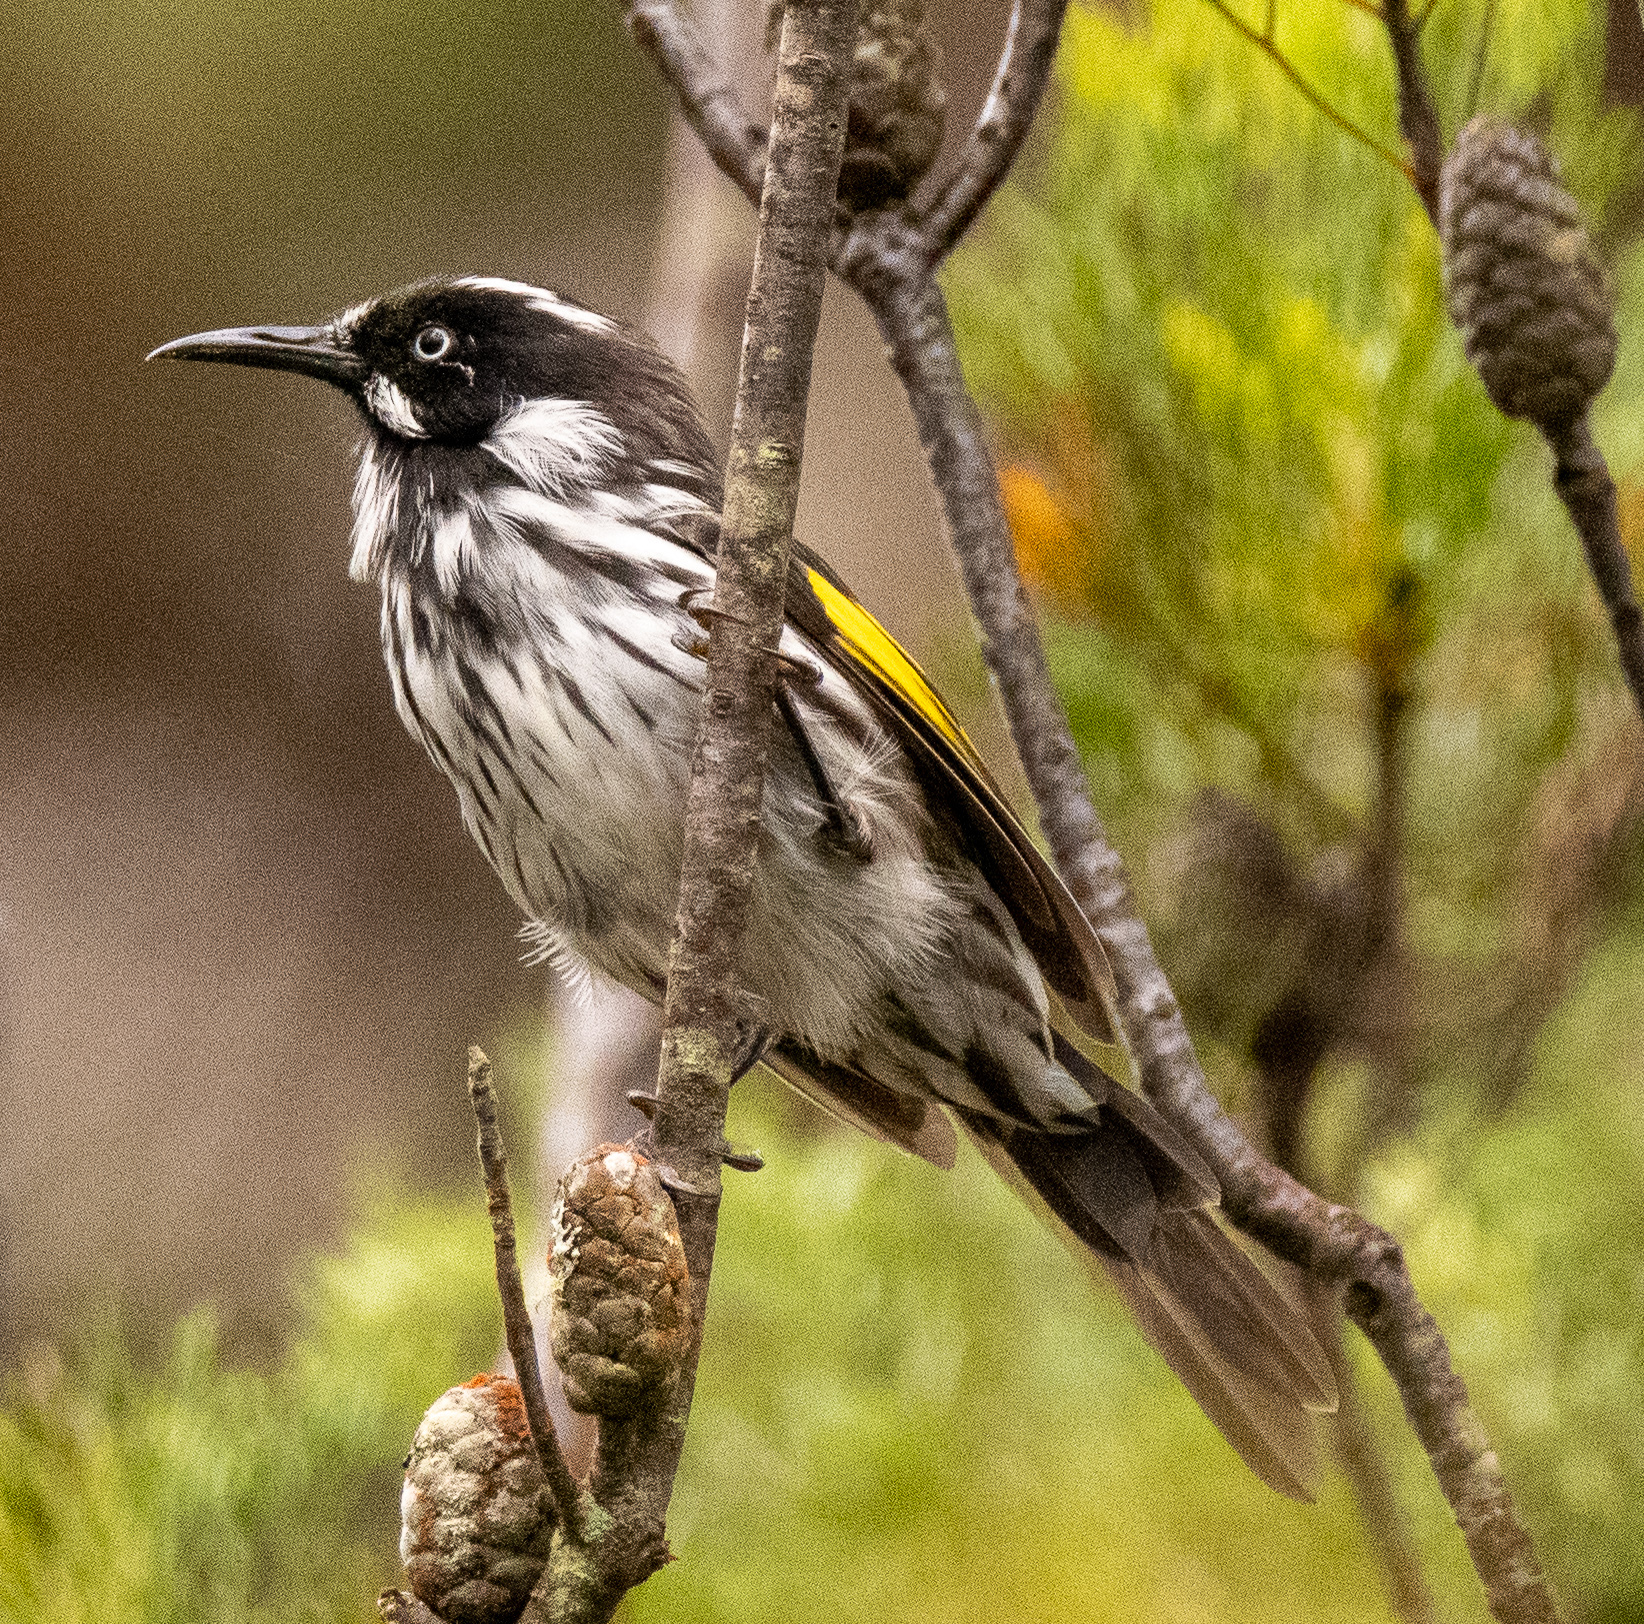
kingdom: Animalia
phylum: Chordata
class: Aves
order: Passeriformes
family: Meliphagidae
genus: Phylidonyris
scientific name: Phylidonyris novaehollandiae
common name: New holland honeyeater
